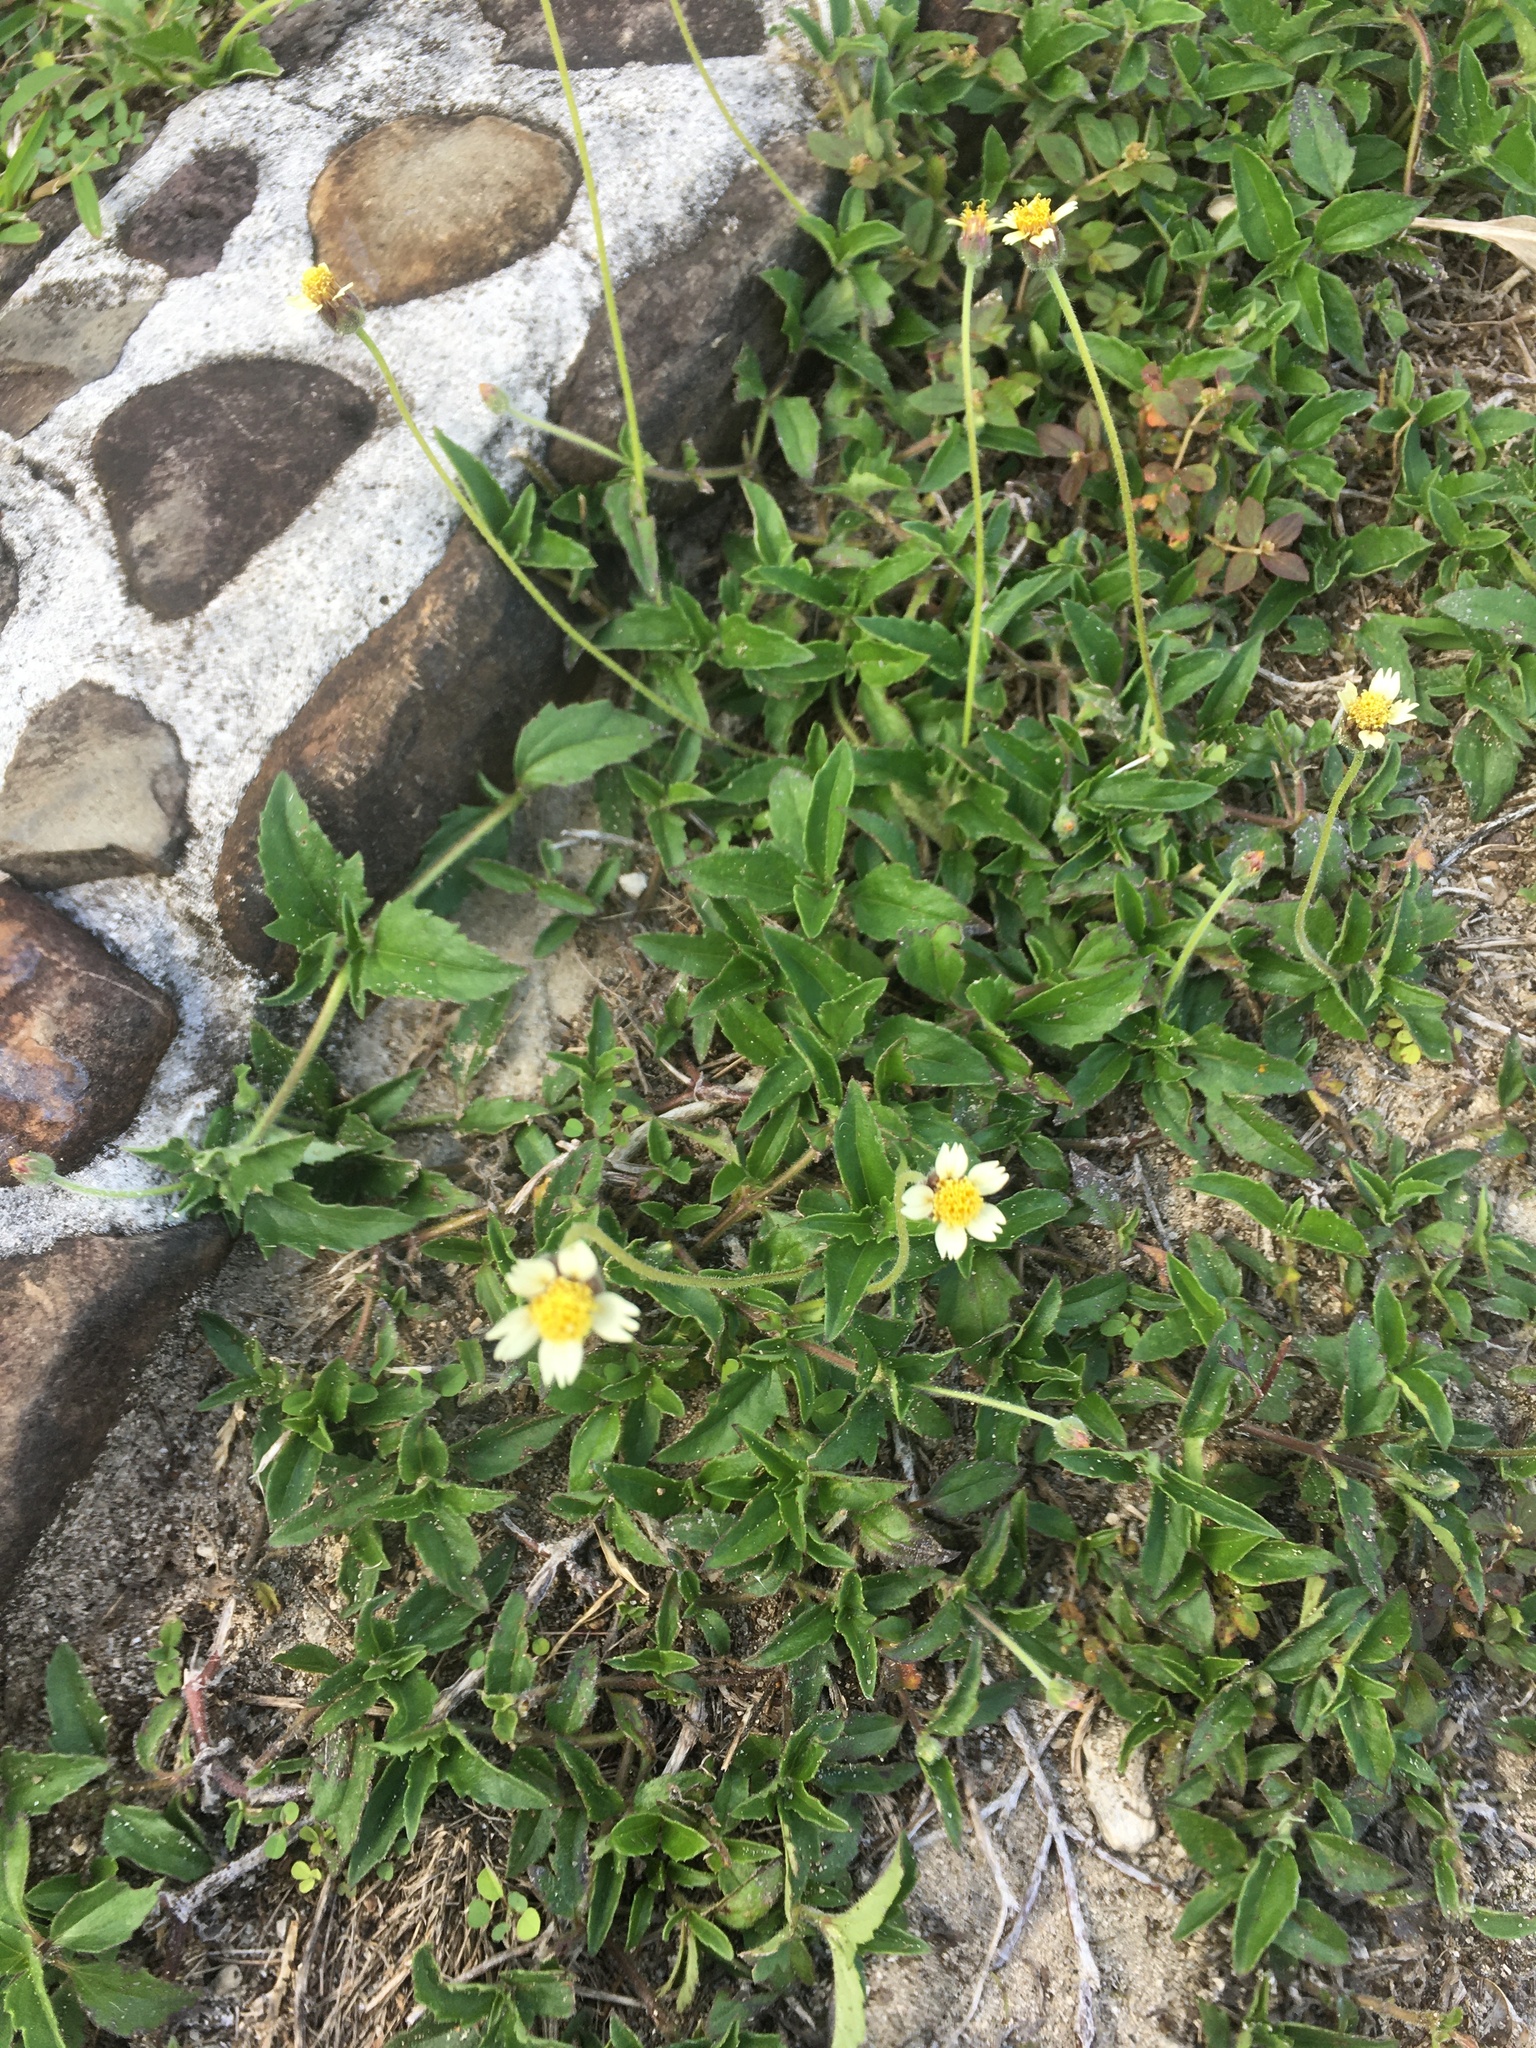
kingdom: Plantae
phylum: Tracheophyta
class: Magnoliopsida
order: Asterales
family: Asteraceae
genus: Tridax
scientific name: Tridax procumbens
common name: Coatbuttons
